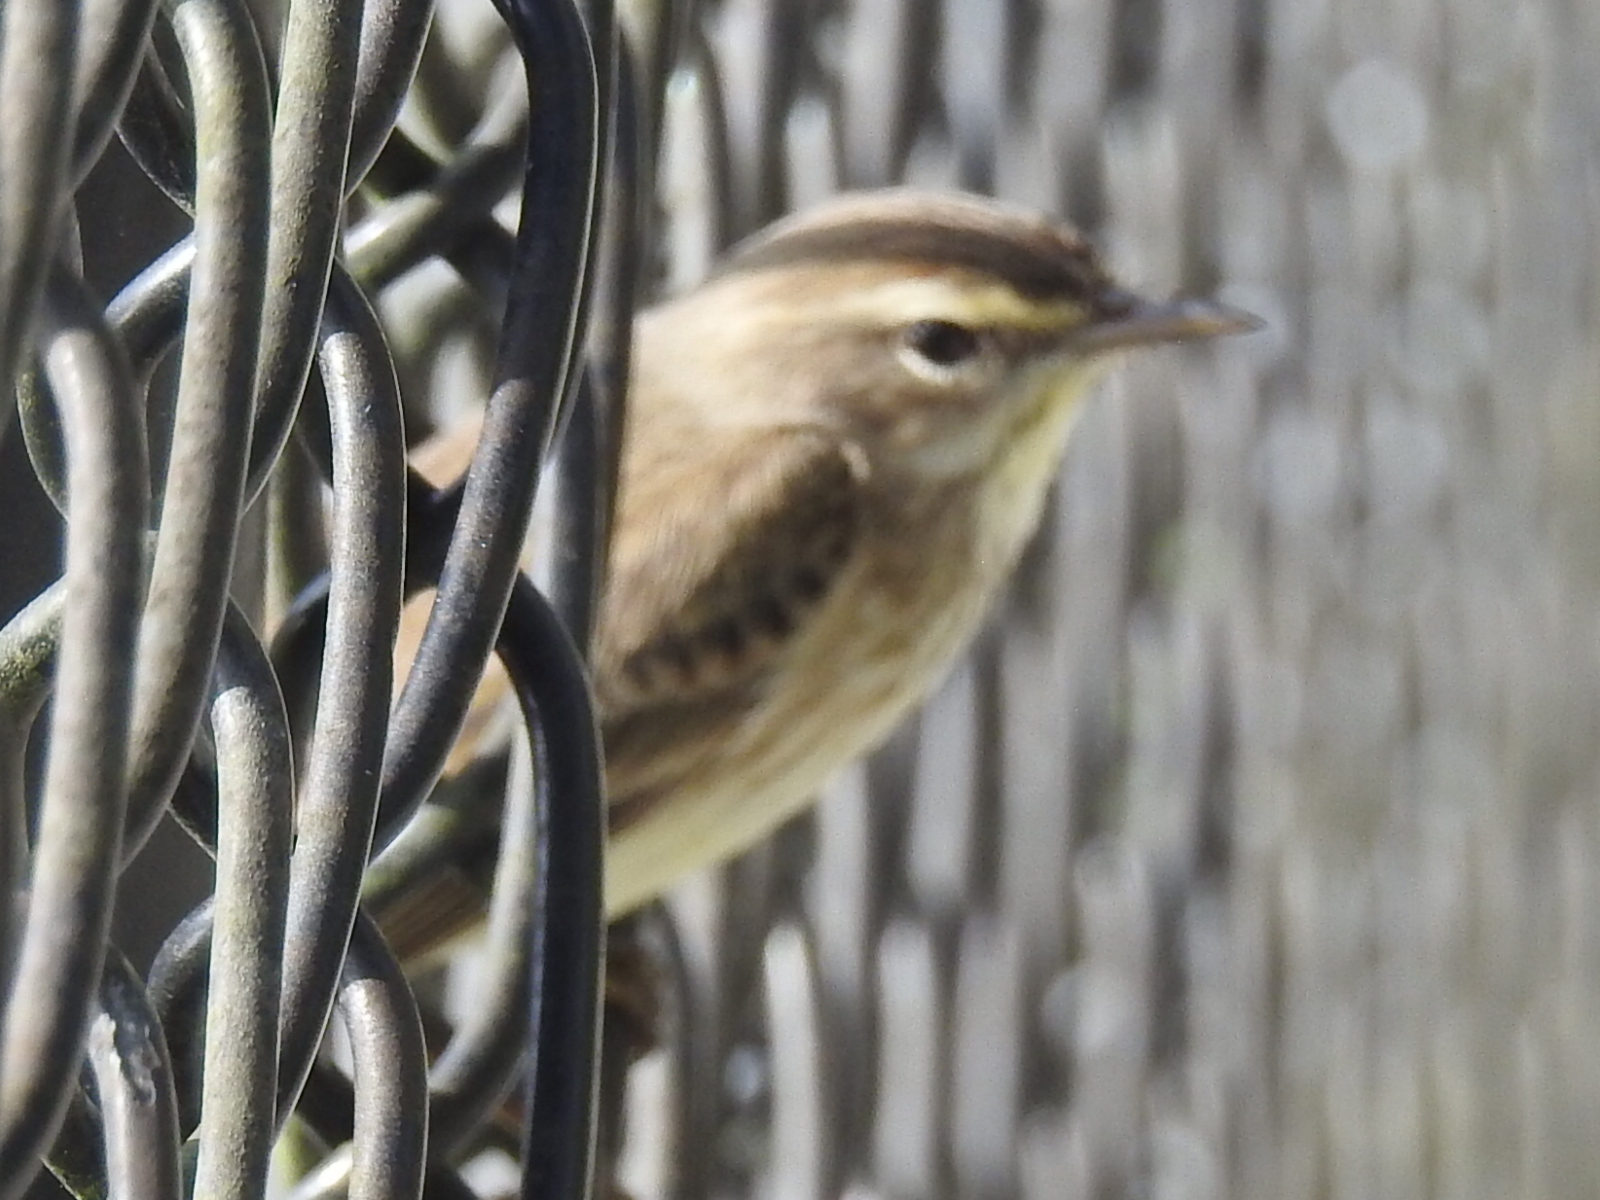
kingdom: Animalia
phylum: Chordata
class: Aves
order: Passeriformes
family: Parulidae
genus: Setophaga
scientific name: Setophaga palmarum
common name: Palm warbler
